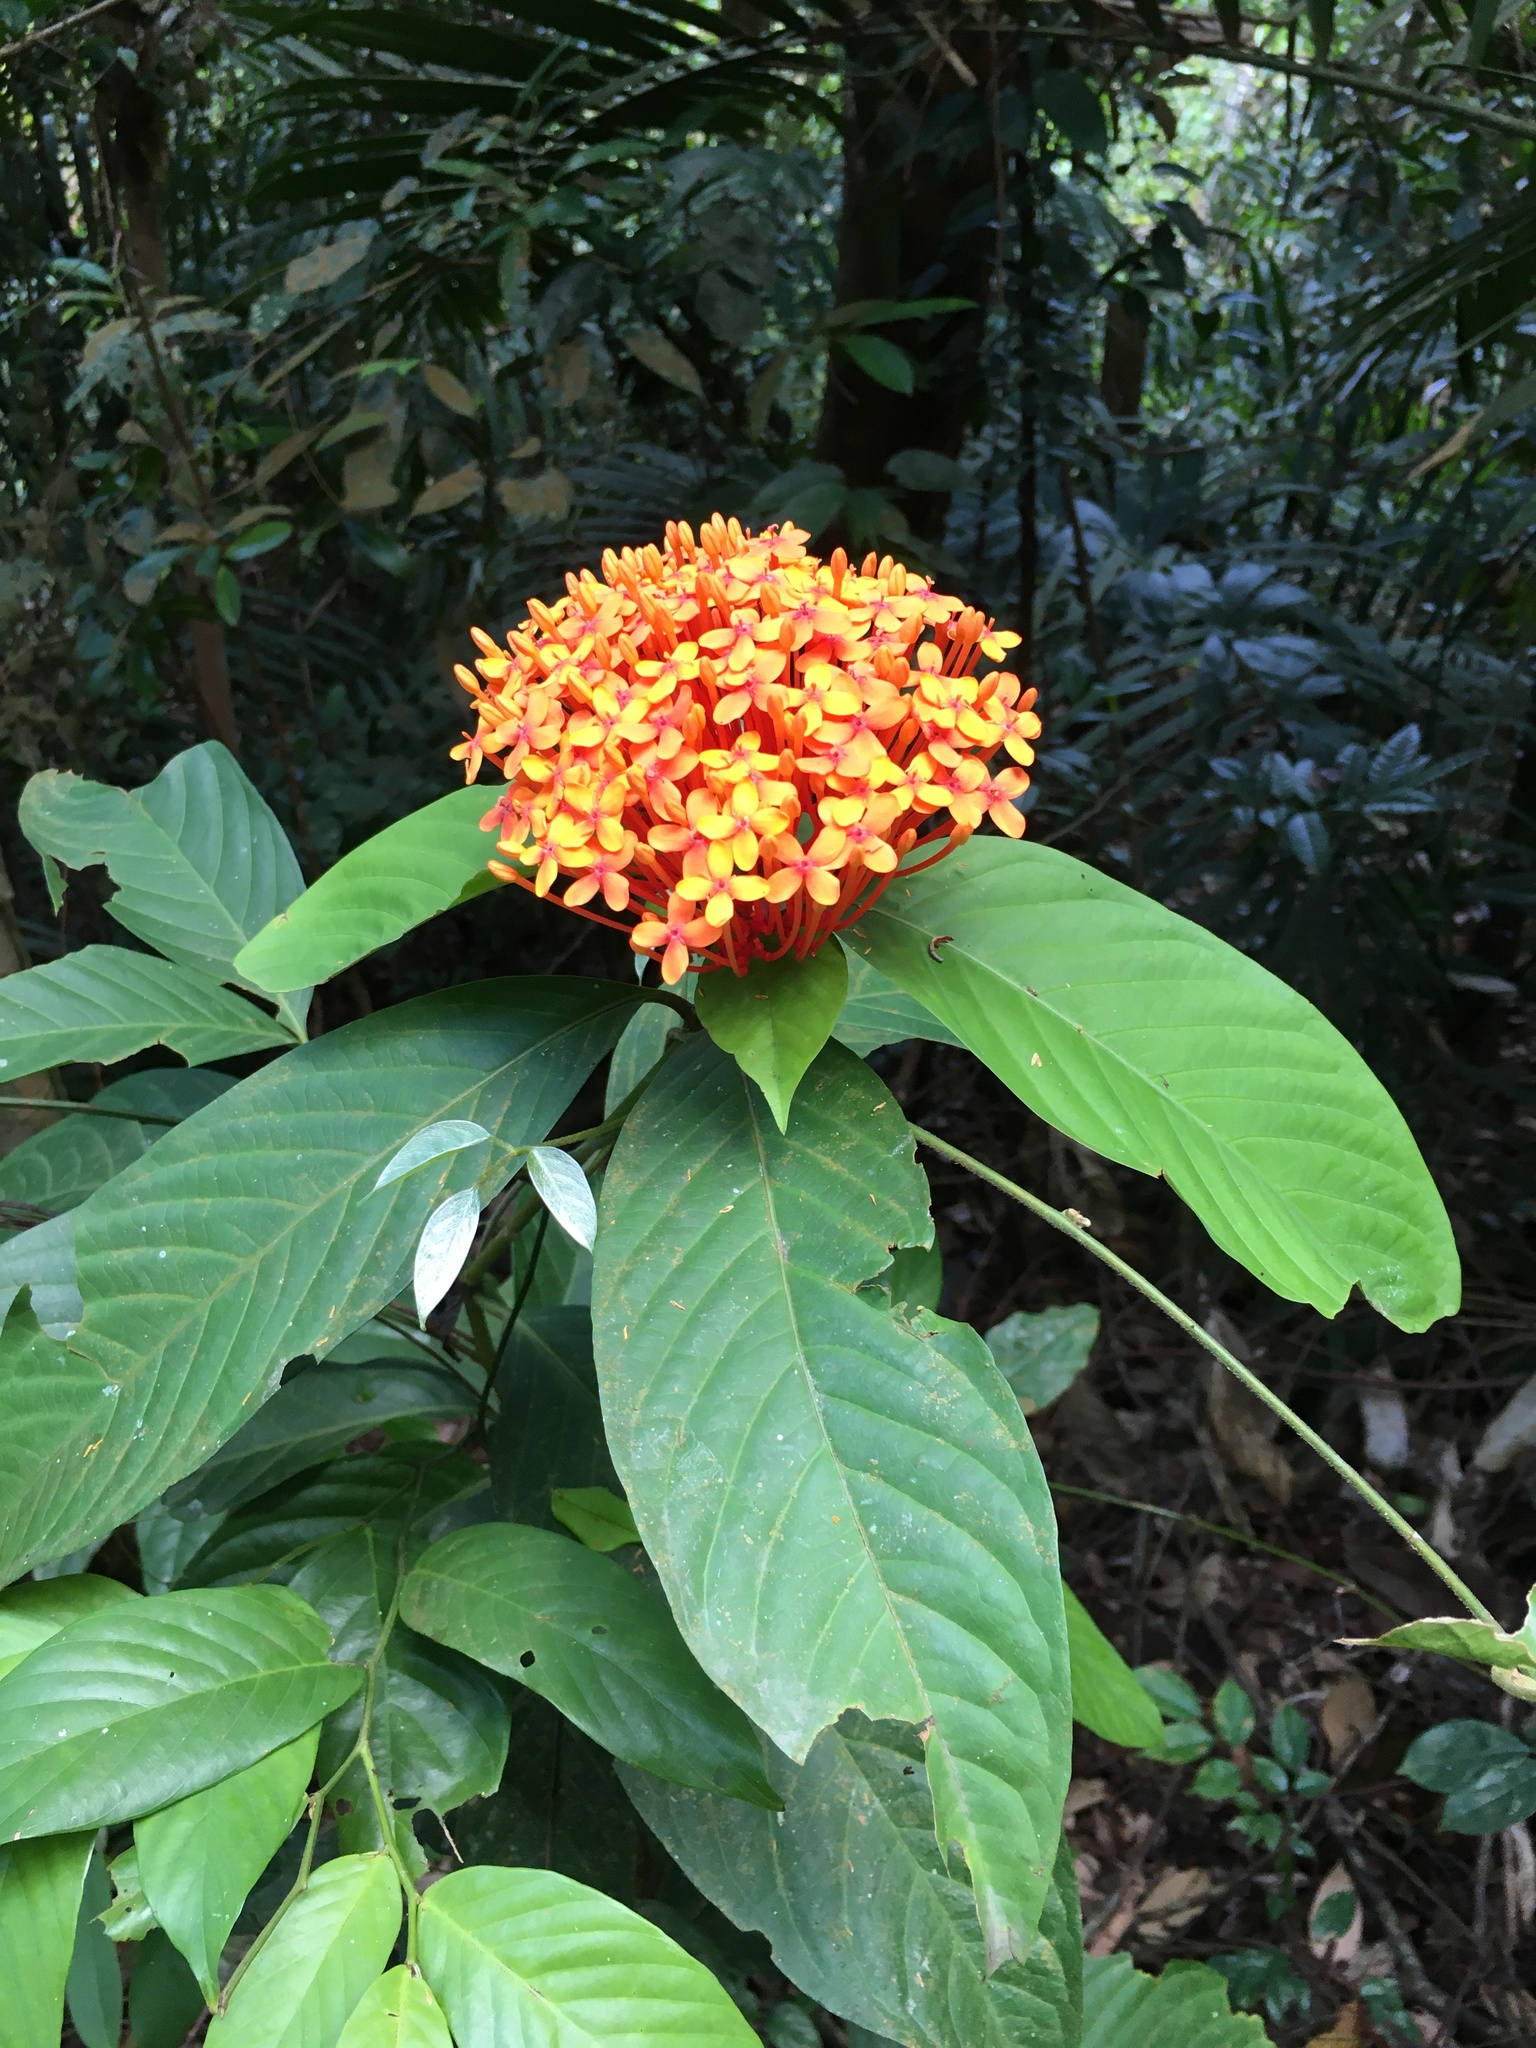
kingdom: Plantae
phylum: Tracheophyta
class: Magnoliopsida
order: Gentianales
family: Rubiaceae
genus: Ixora
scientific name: Ixora congesta
